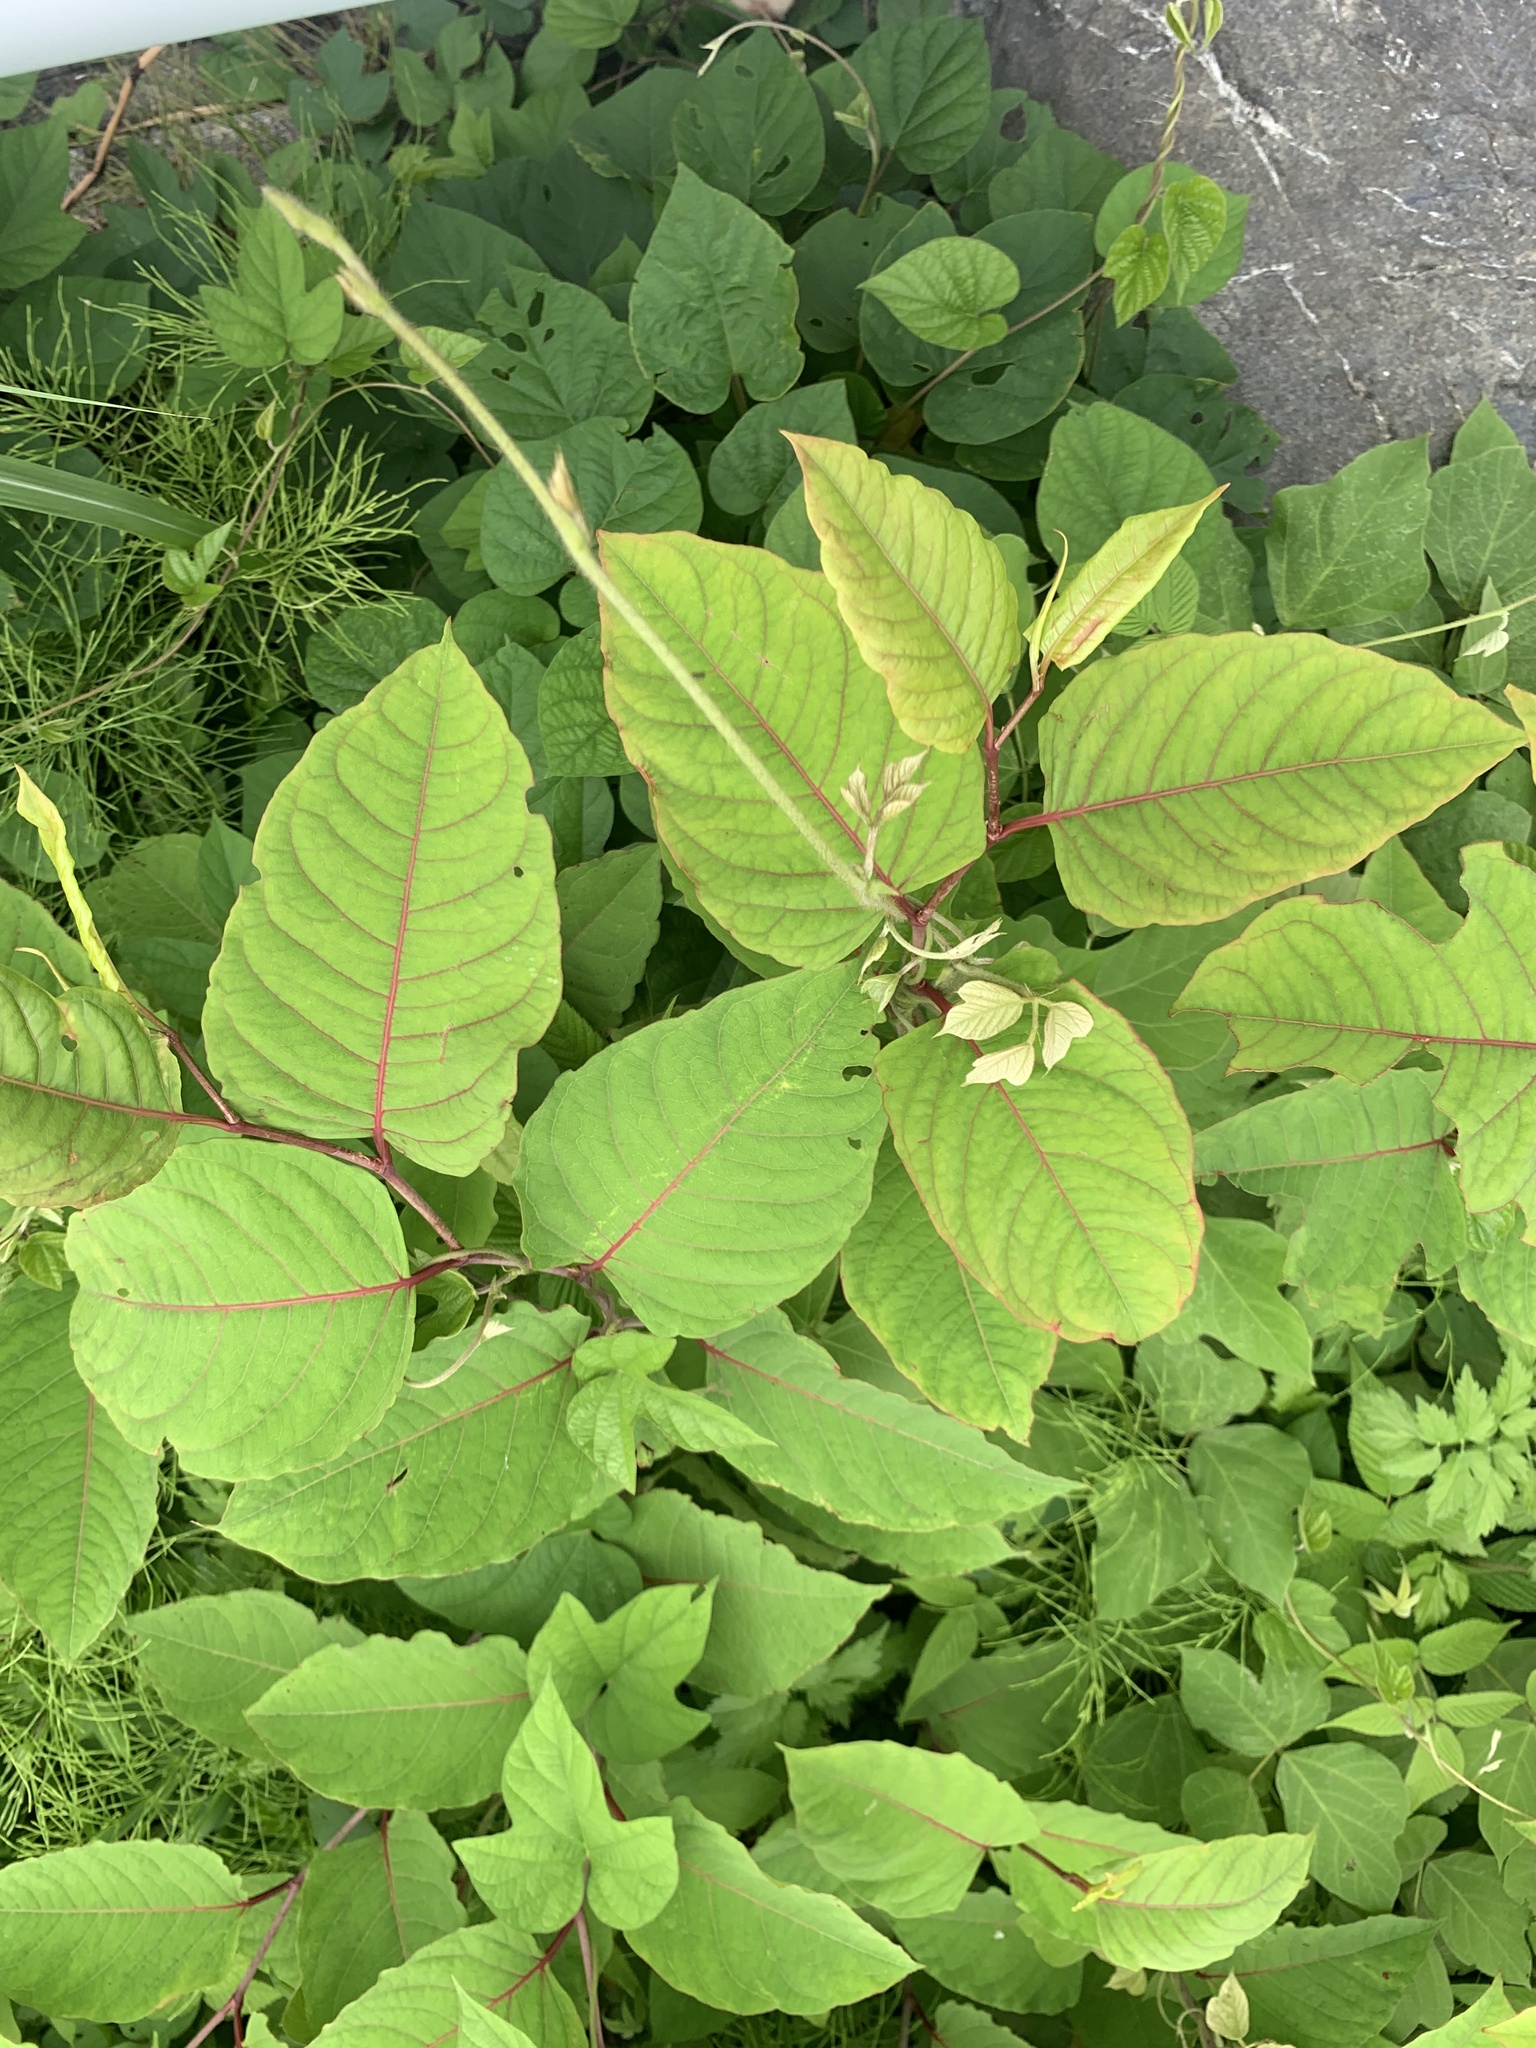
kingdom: Plantae
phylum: Tracheophyta
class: Magnoliopsida
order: Caryophyllales
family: Polygonaceae
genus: Reynoutria
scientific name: Reynoutria japonica
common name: Japanese knotweed
